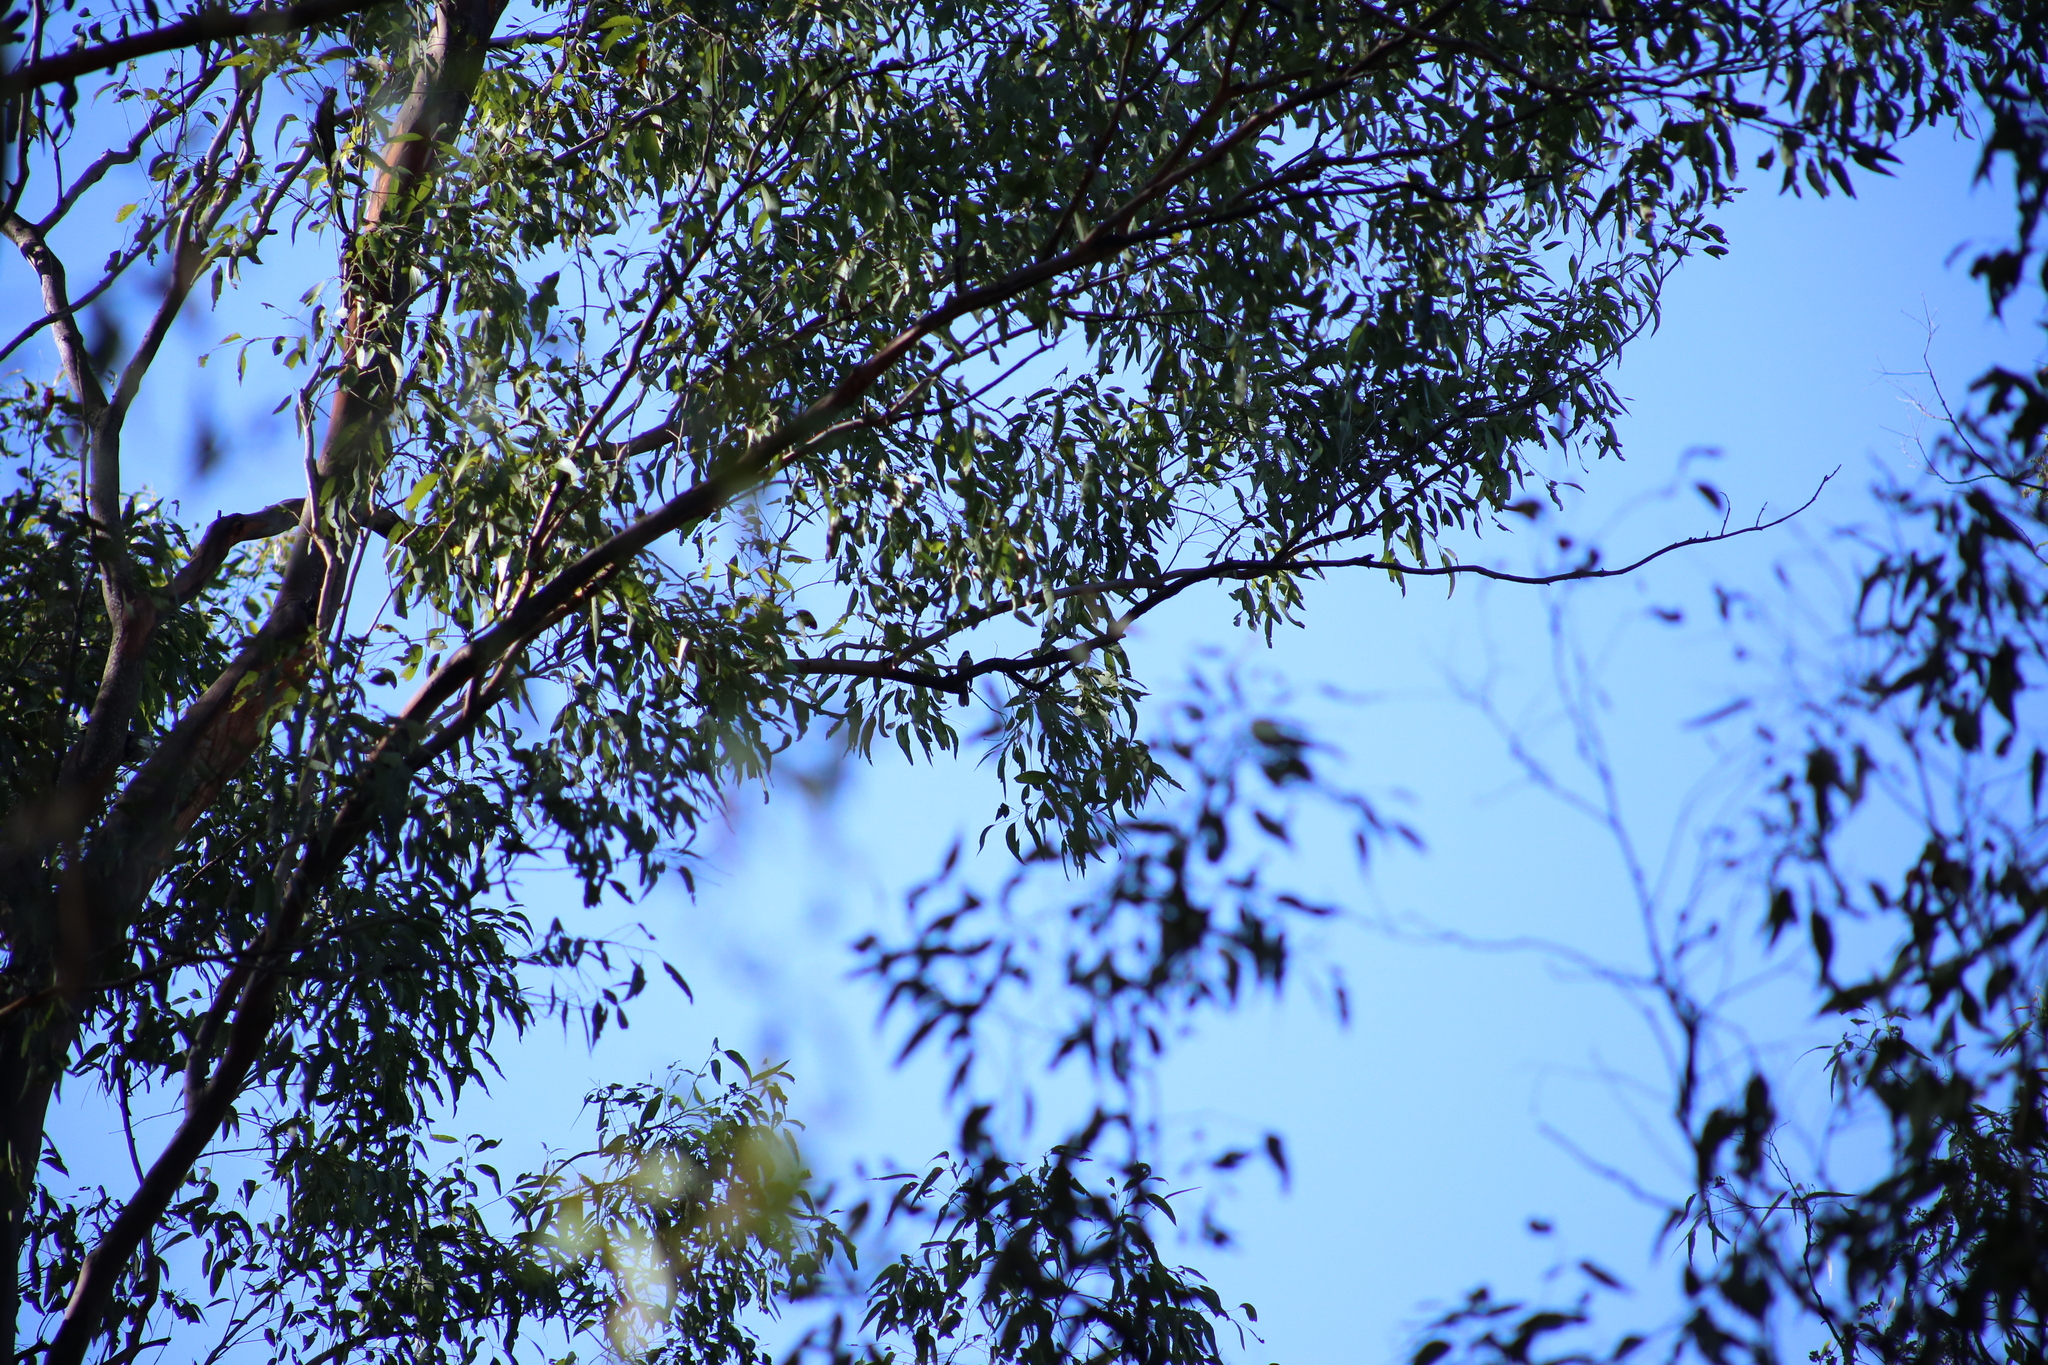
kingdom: Animalia
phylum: Chordata
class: Aves
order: Passeriformes
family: Rhipiduridae
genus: Rhipidura
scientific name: Rhipidura albiscapa
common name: Grey fantail
